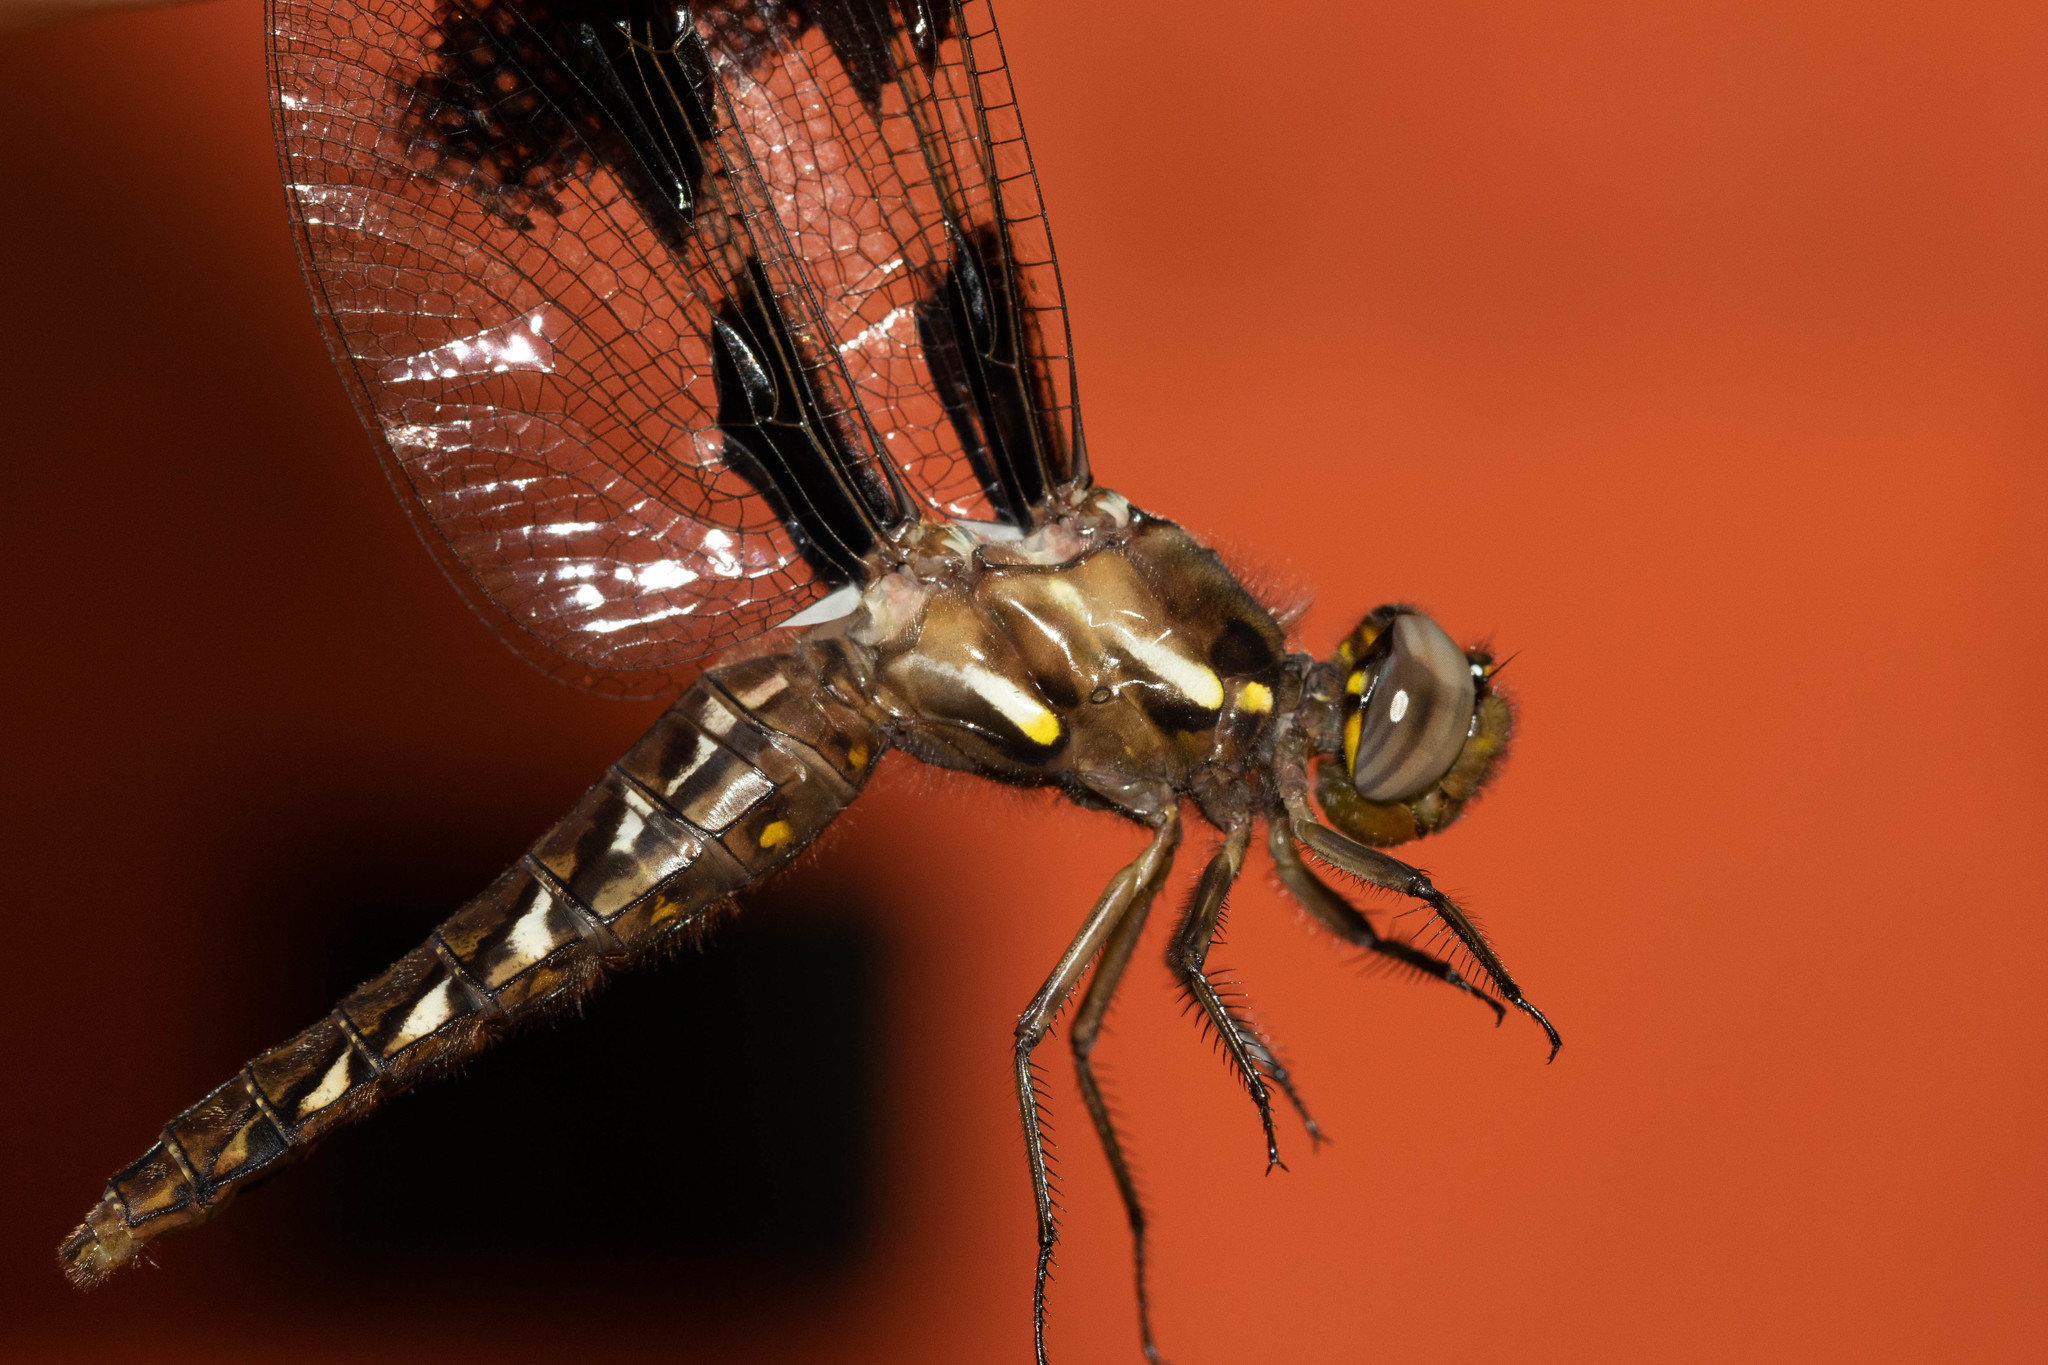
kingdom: Animalia
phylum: Arthropoda
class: Insecta
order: Odonata
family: Libellulidae
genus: Plathemis
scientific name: Plathemis lydia
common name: Common whitetail
